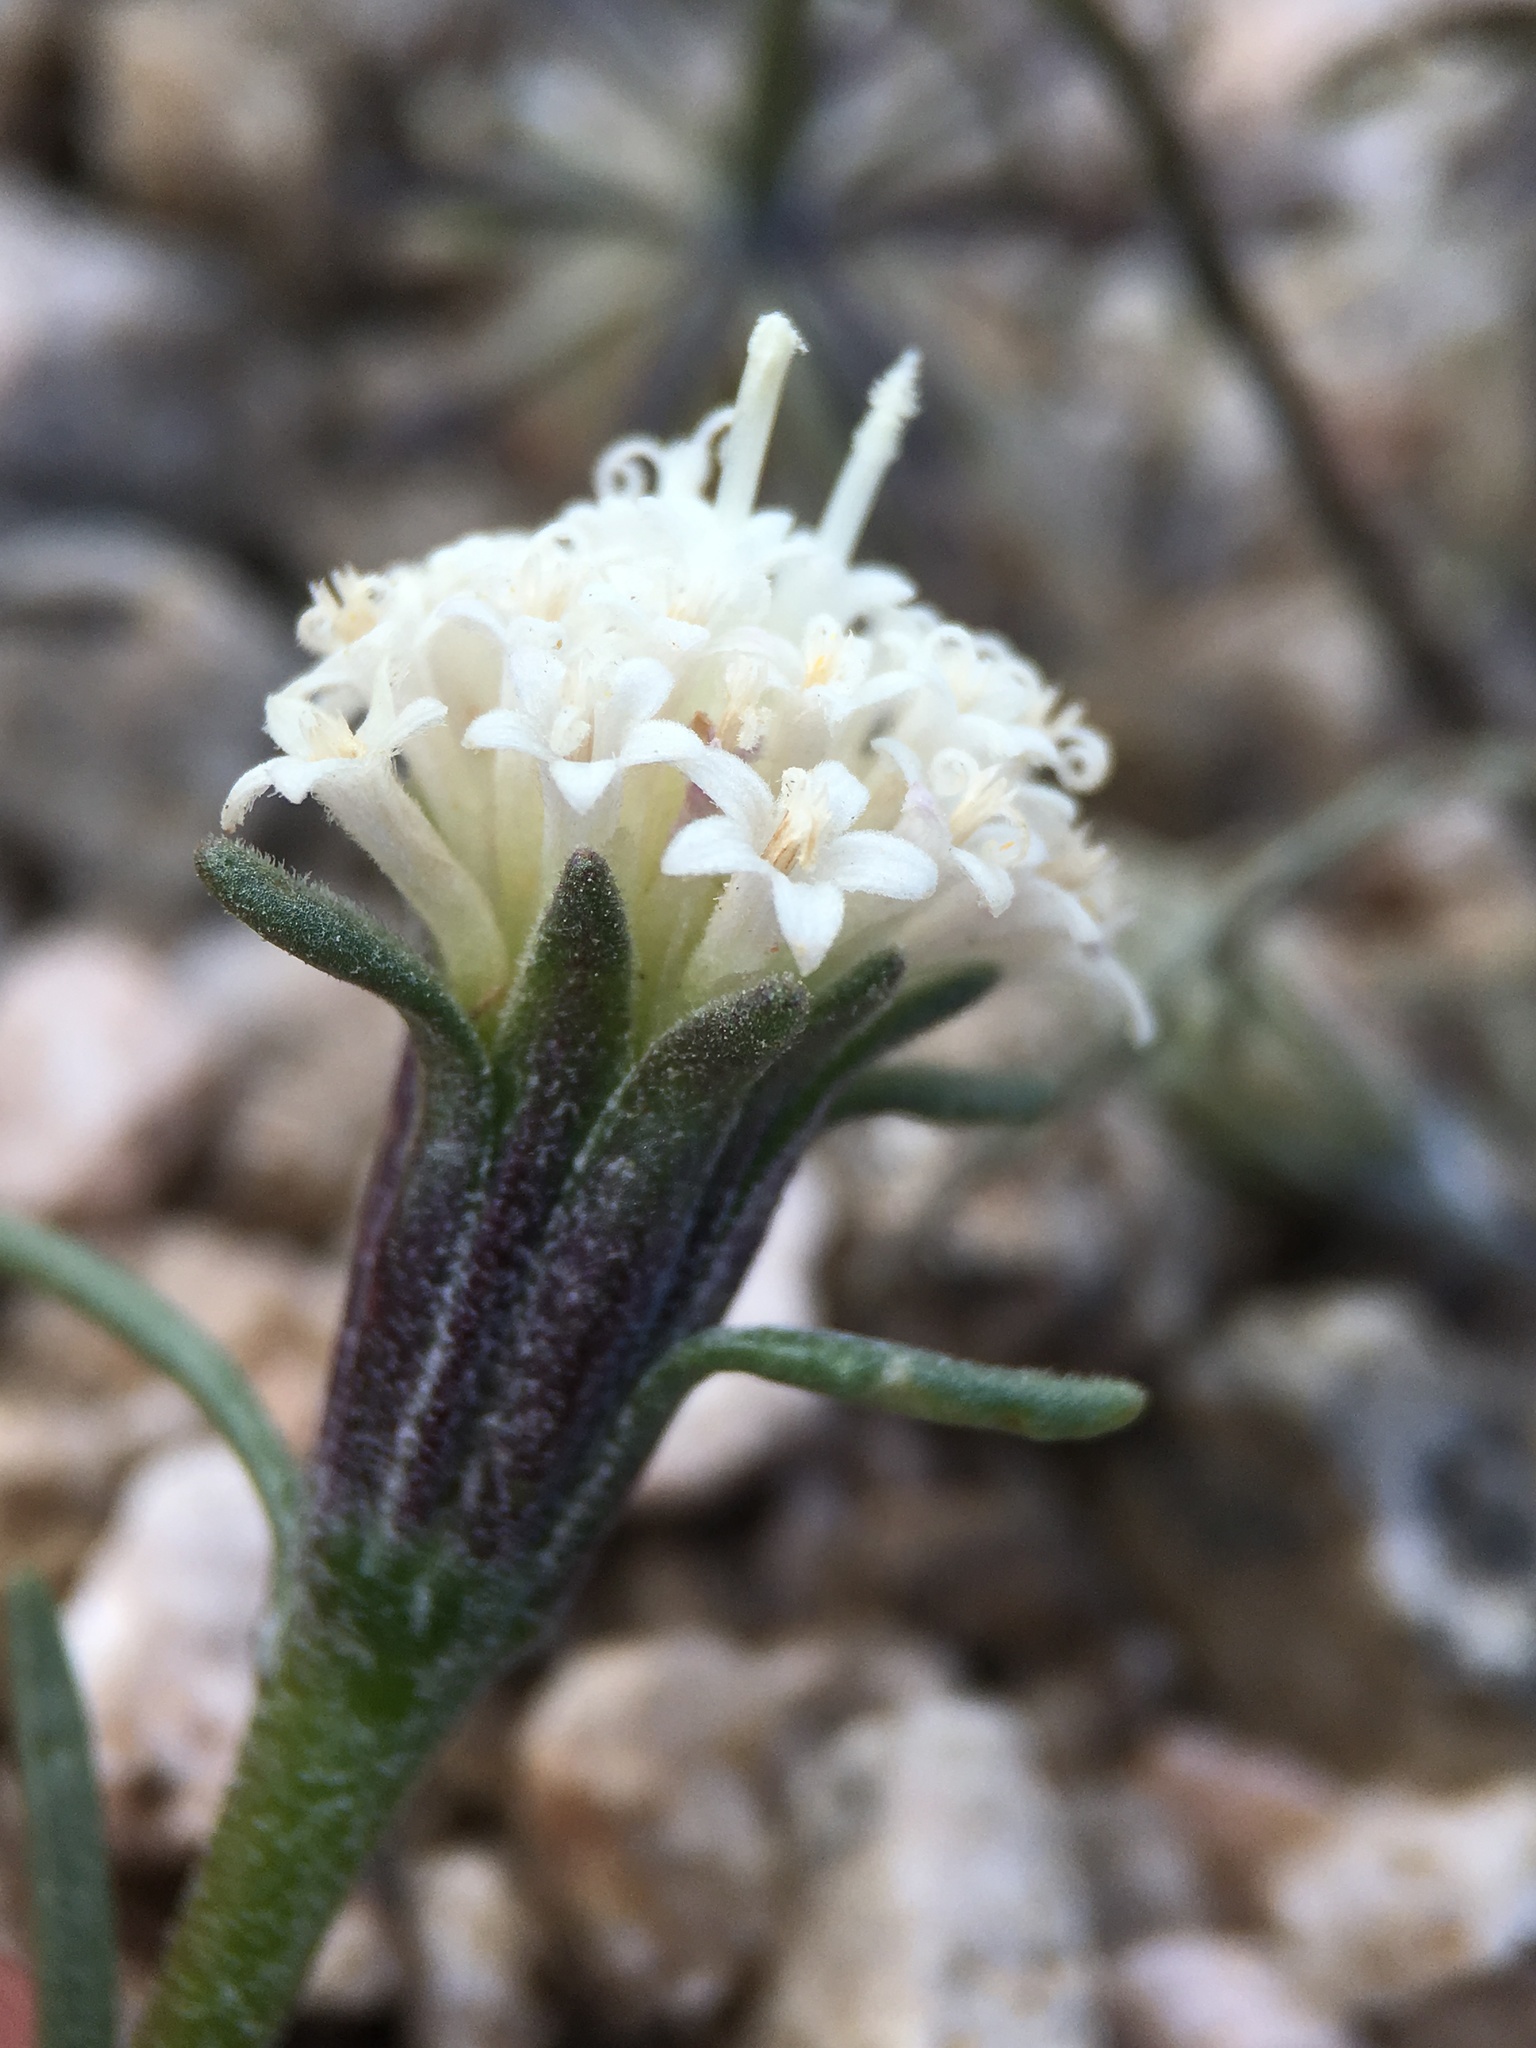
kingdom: Plantae
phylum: Tracheophyta
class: Magnoliopsida
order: Asterales
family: Asteraceae
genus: Chaenactis
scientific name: Chaenactis xantiana
